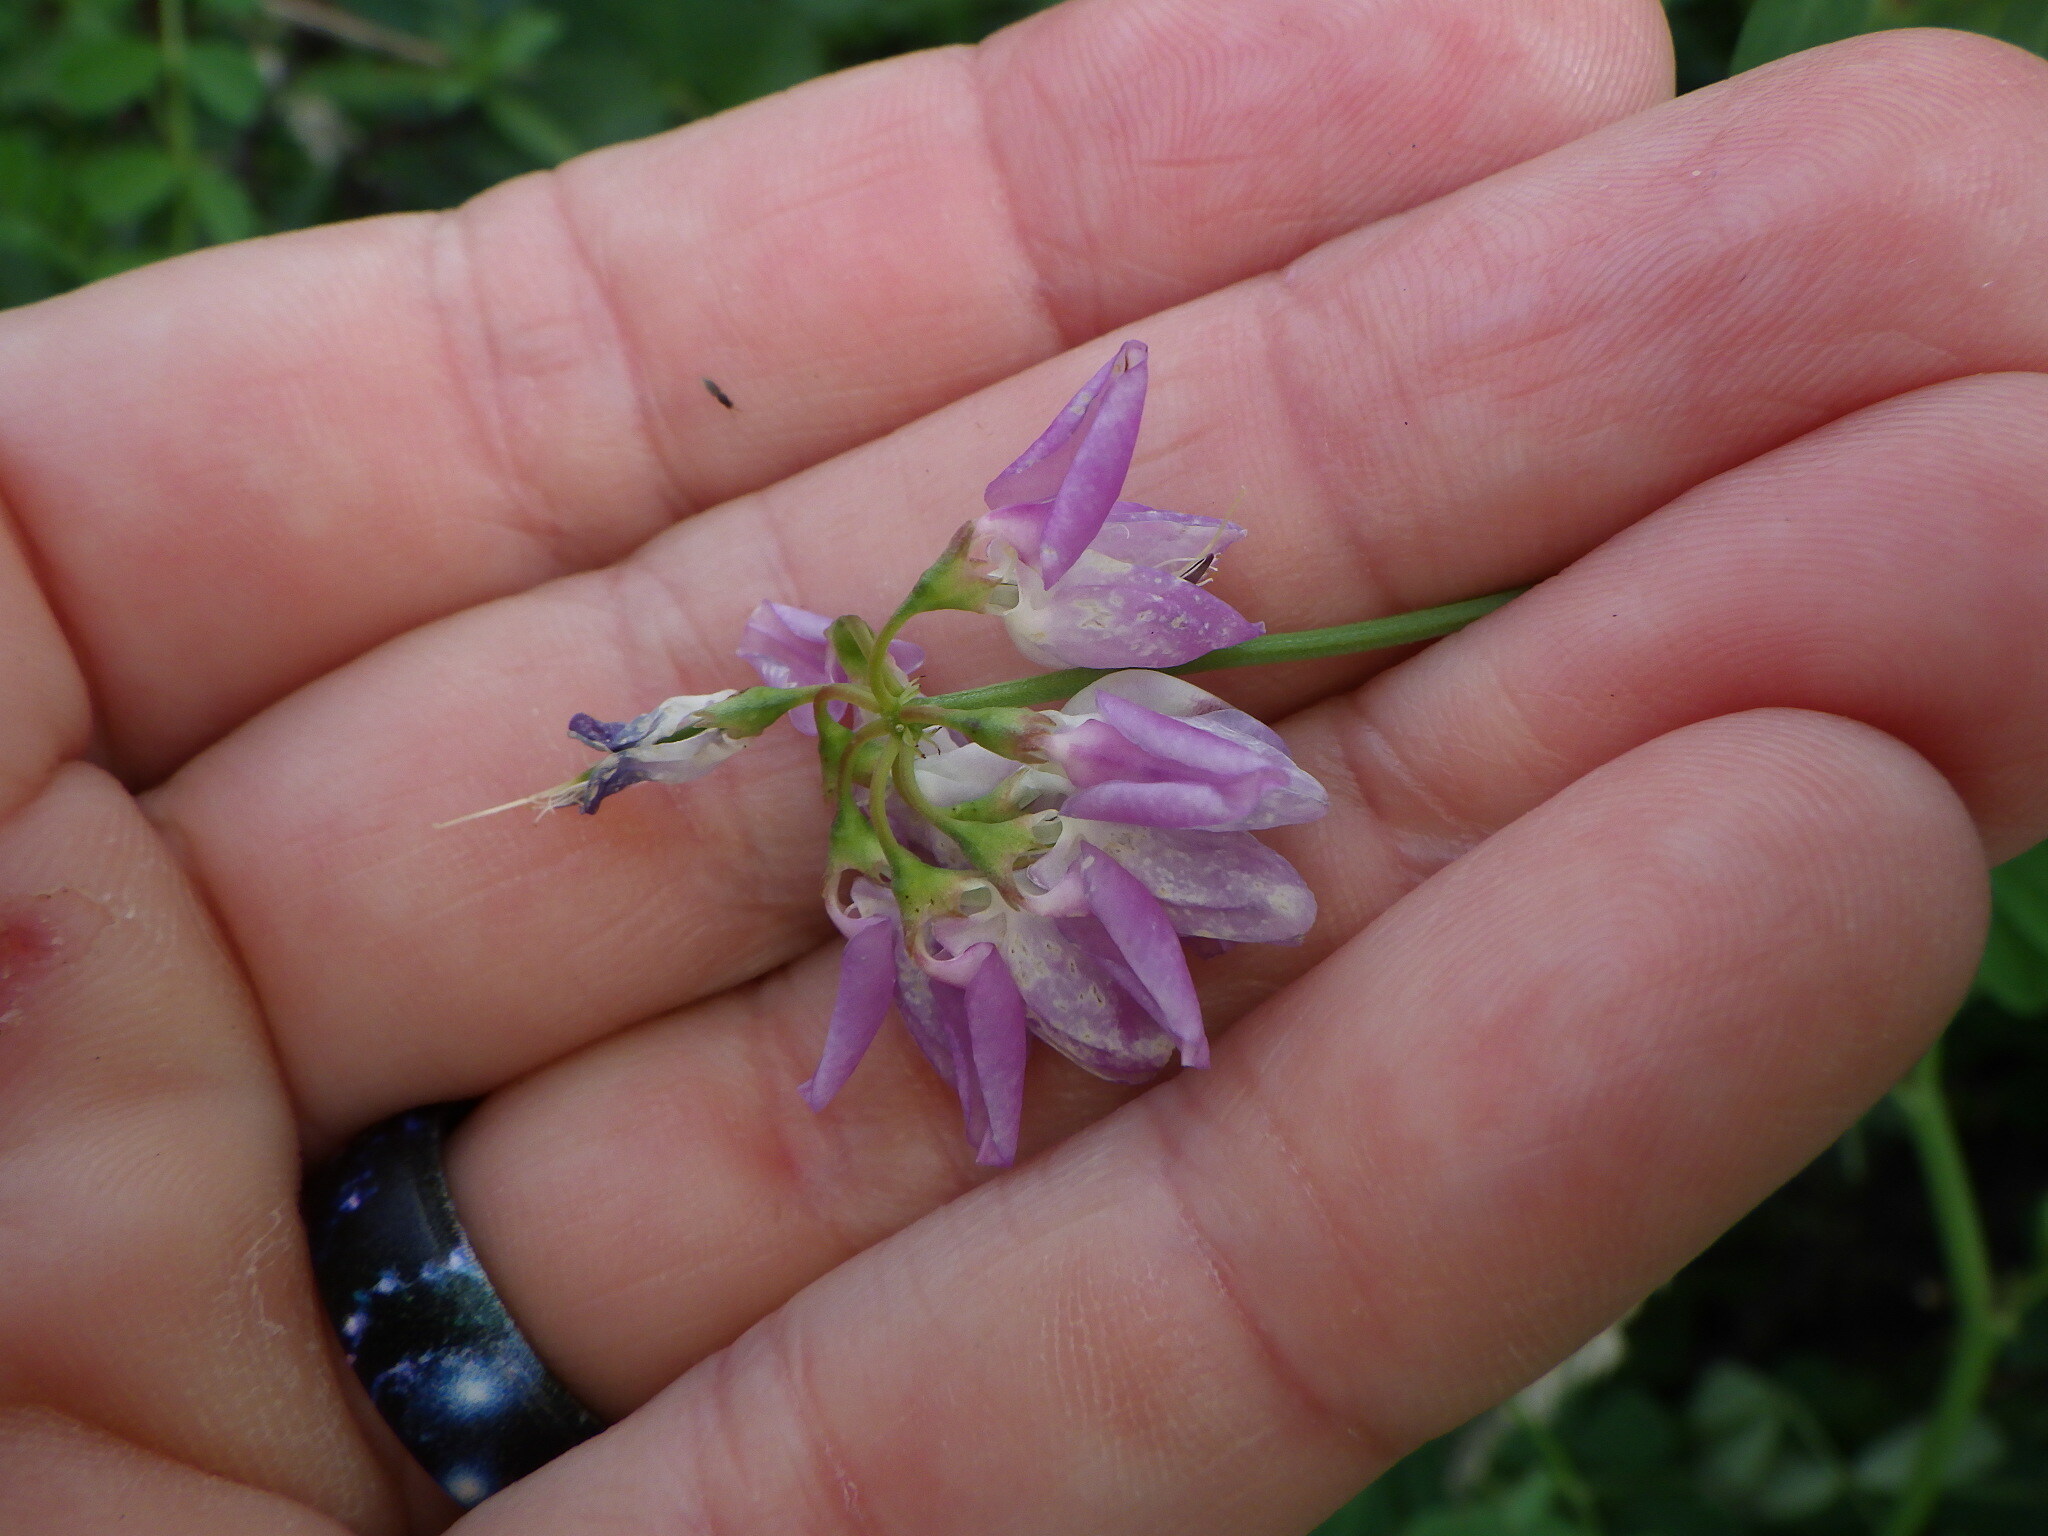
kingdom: Plantae
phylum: Tracheophyta
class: Magnoliopsida
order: Fabales
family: Fabaceae
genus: Coronilla
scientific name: Coronilla varia
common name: Crownvetch
